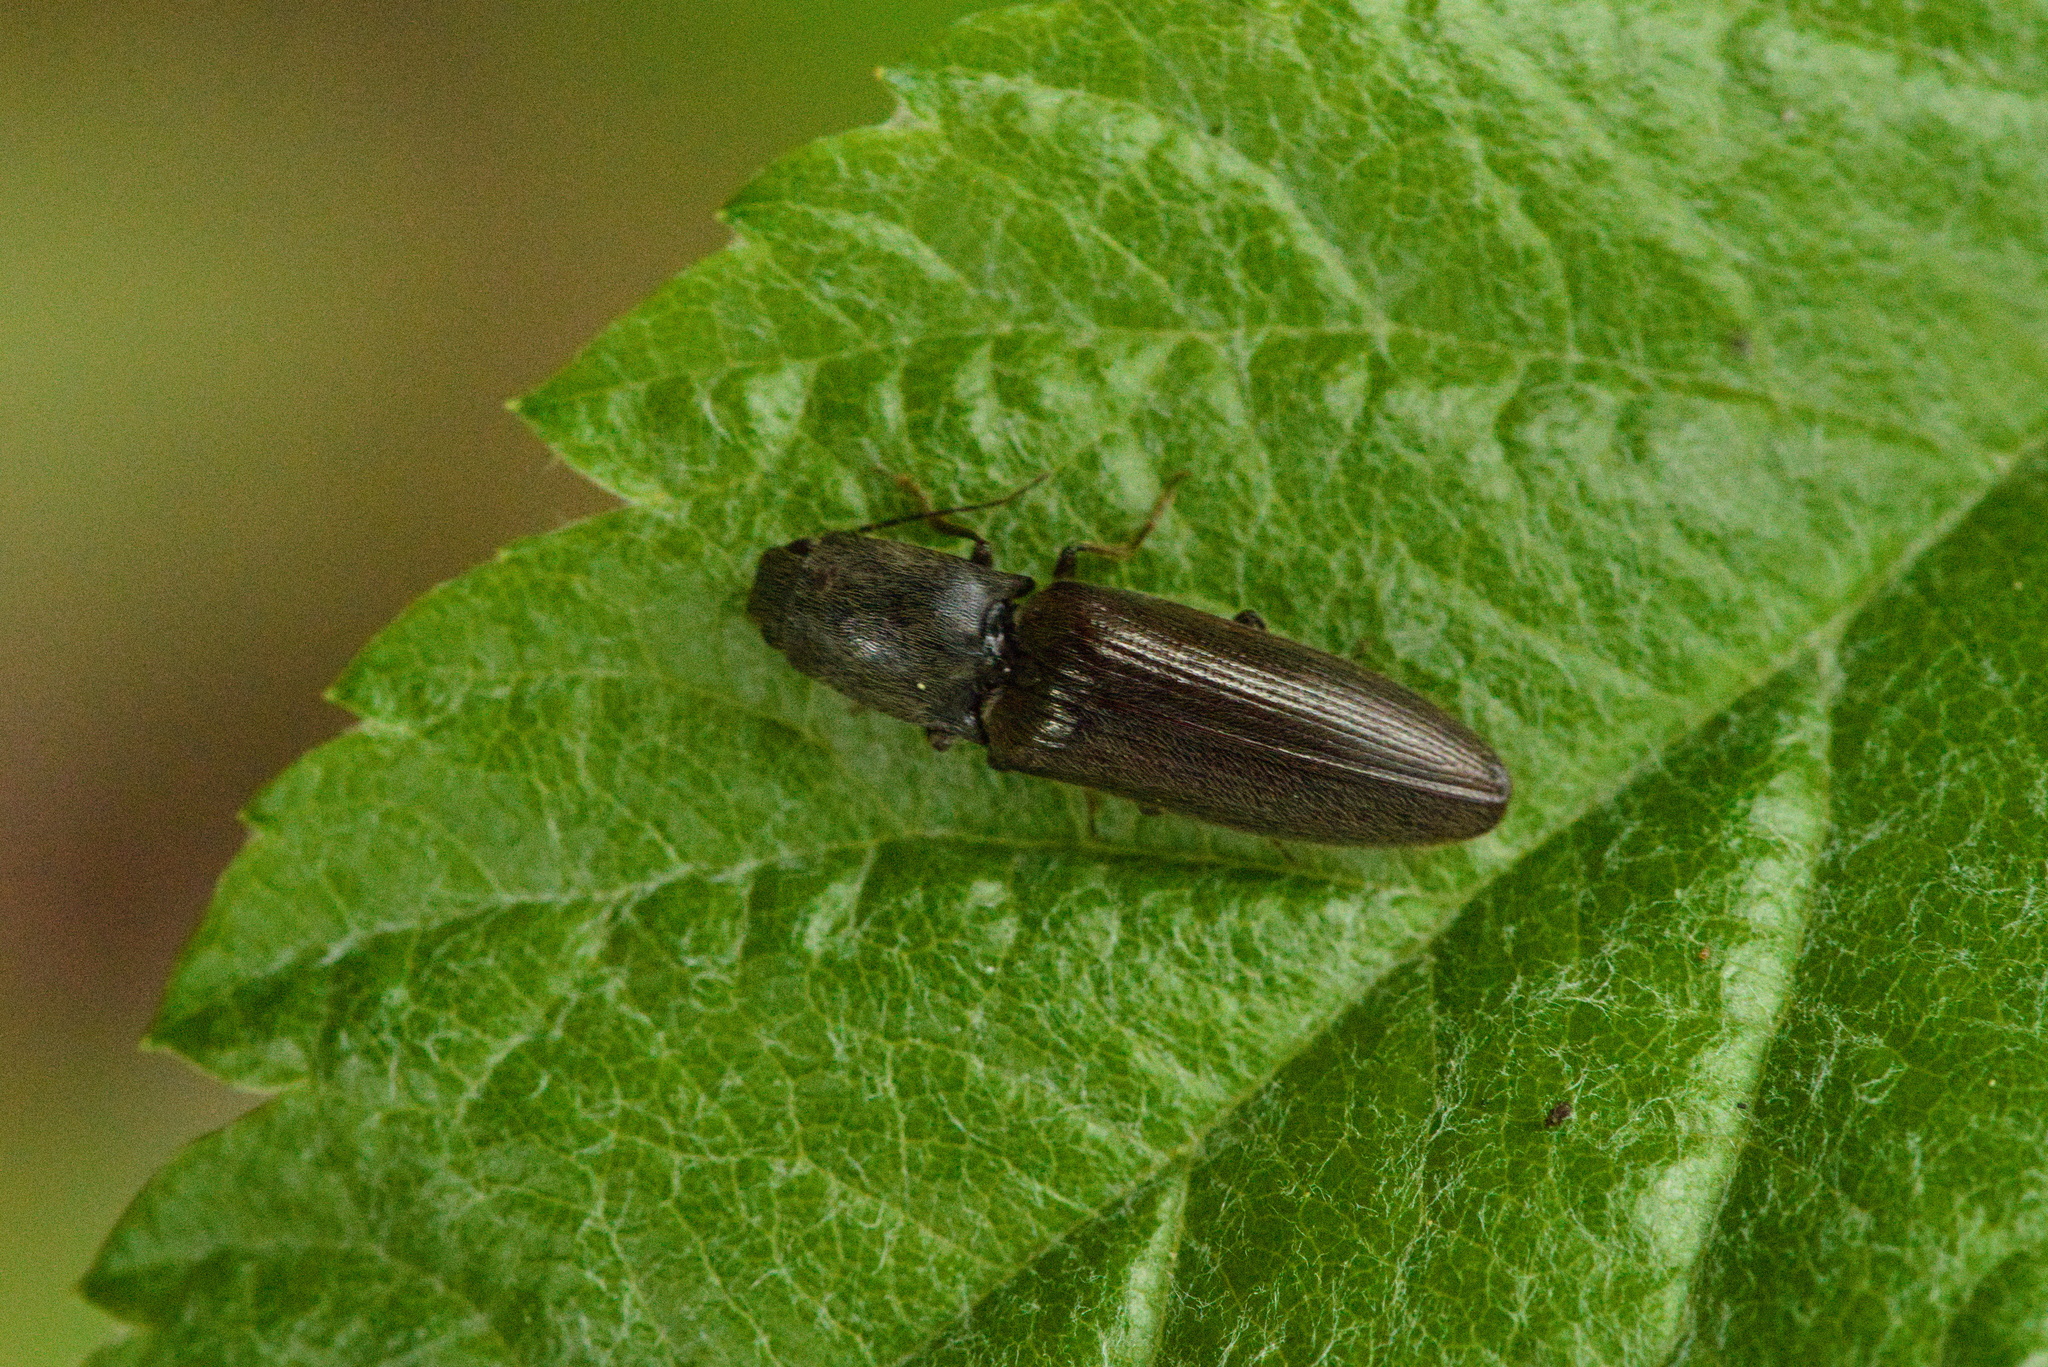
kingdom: Animalia
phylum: Arthropoda
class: Insecta
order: Coleoptera
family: Elateridae
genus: Athous
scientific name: Athous haemorrhoidalis
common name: Red-brown click beetle
